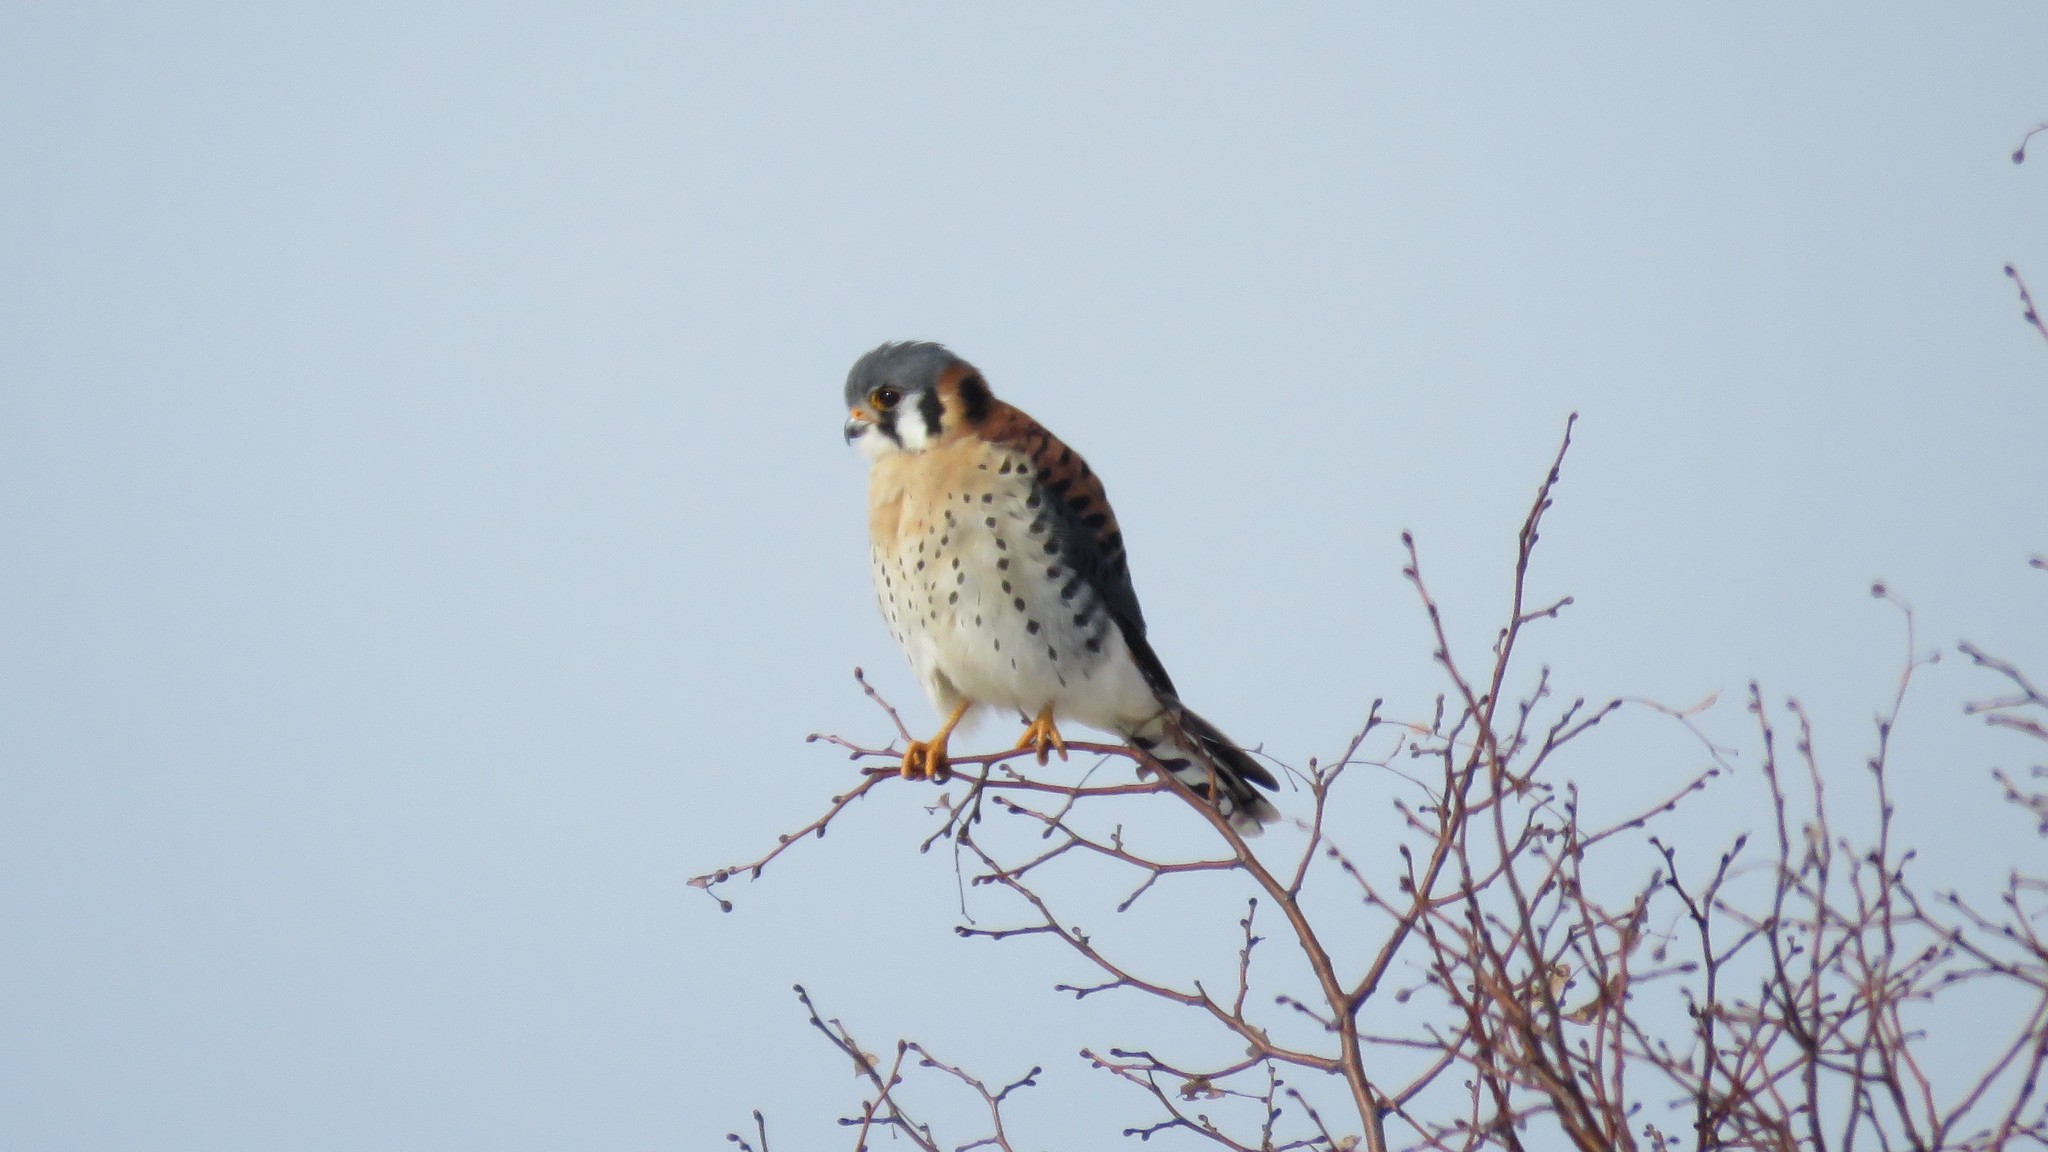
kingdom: Animalia
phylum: Chordata
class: Aves
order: Falconiformes
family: Falconidae
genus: Falco
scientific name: Falco sparverius
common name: American kestrel
